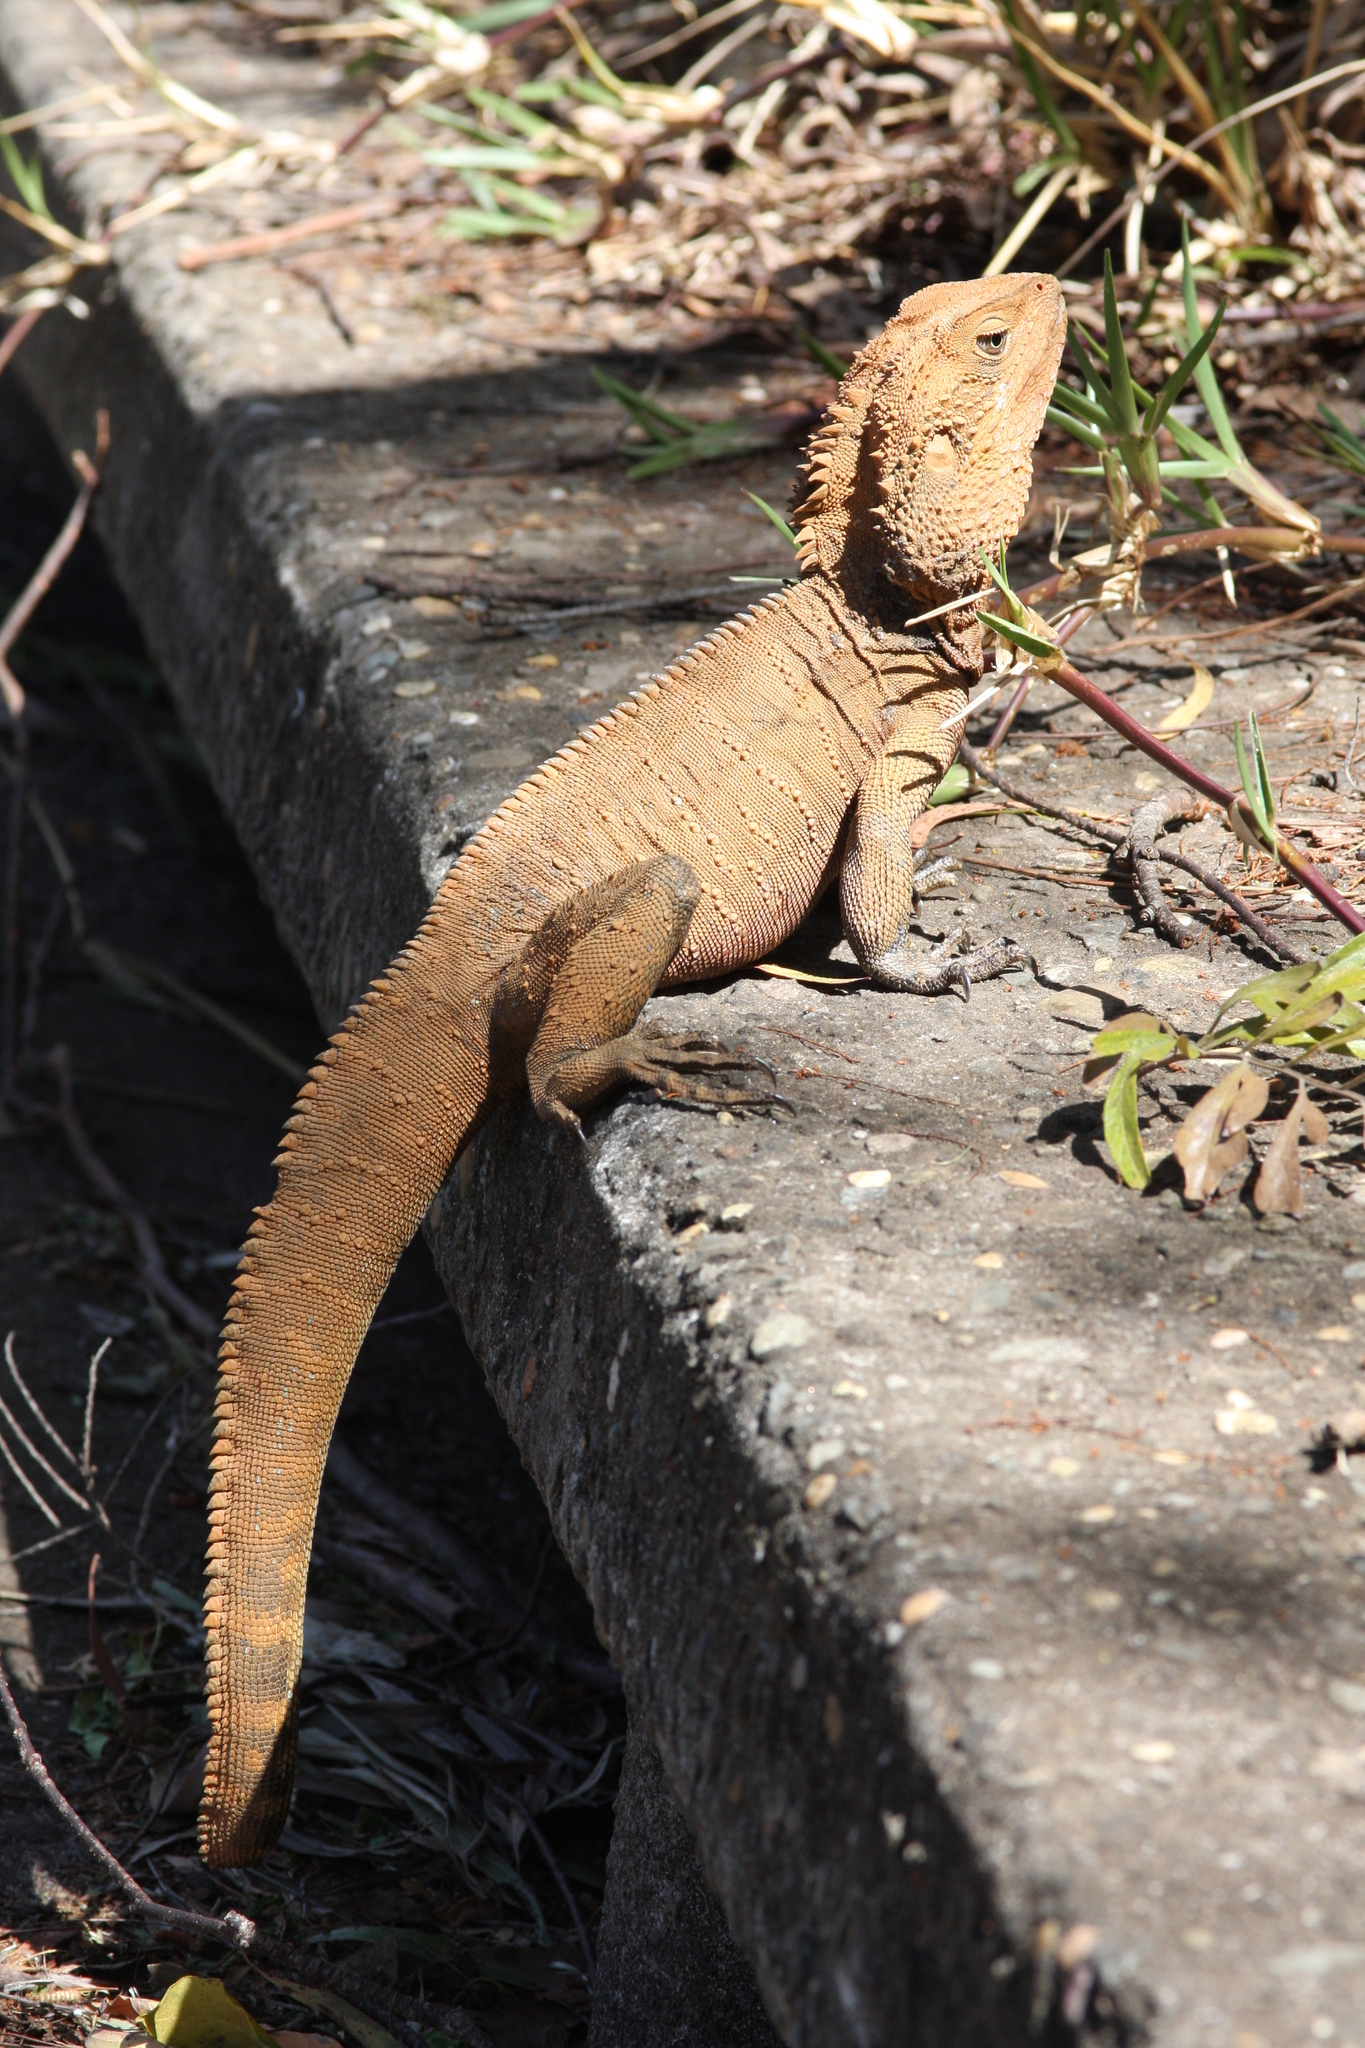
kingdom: Animalia
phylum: Chordata
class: Squamata
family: Agamidae
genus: Intellagama
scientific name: Intellagama lesueurii
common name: Eastern water dragon
